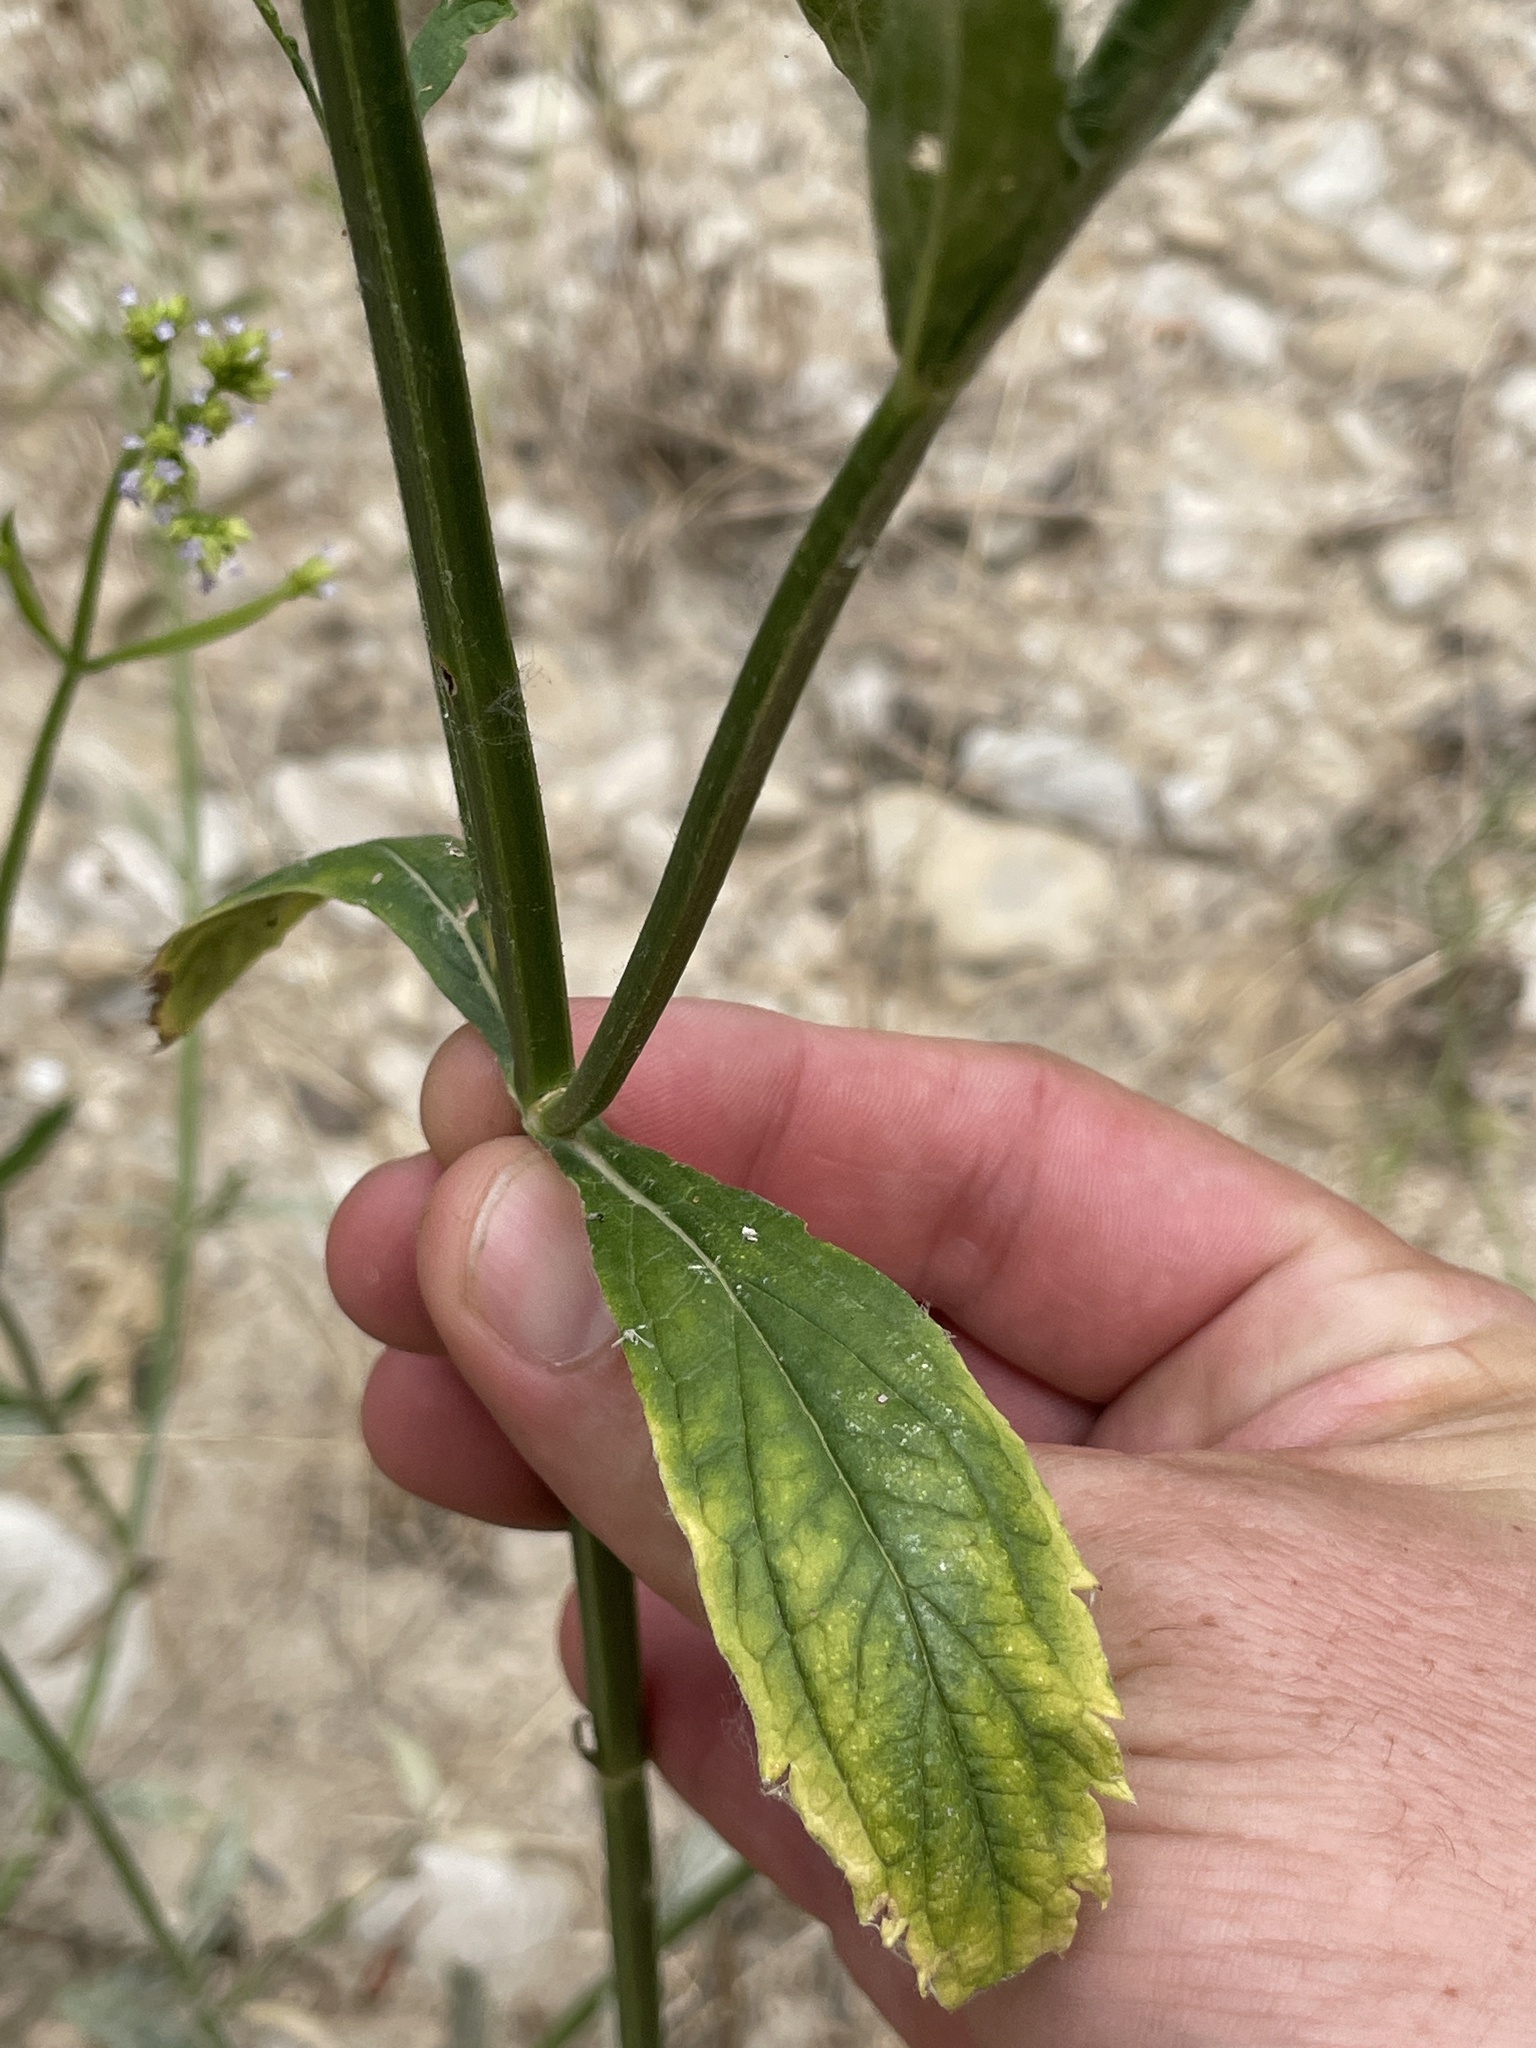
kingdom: Plantae
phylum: Tracheophyta
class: Magnoliopsida
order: Lamiales
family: Verbenaceae
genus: Verbena
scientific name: Verbena brasiliensis
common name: Brazilian vervain
